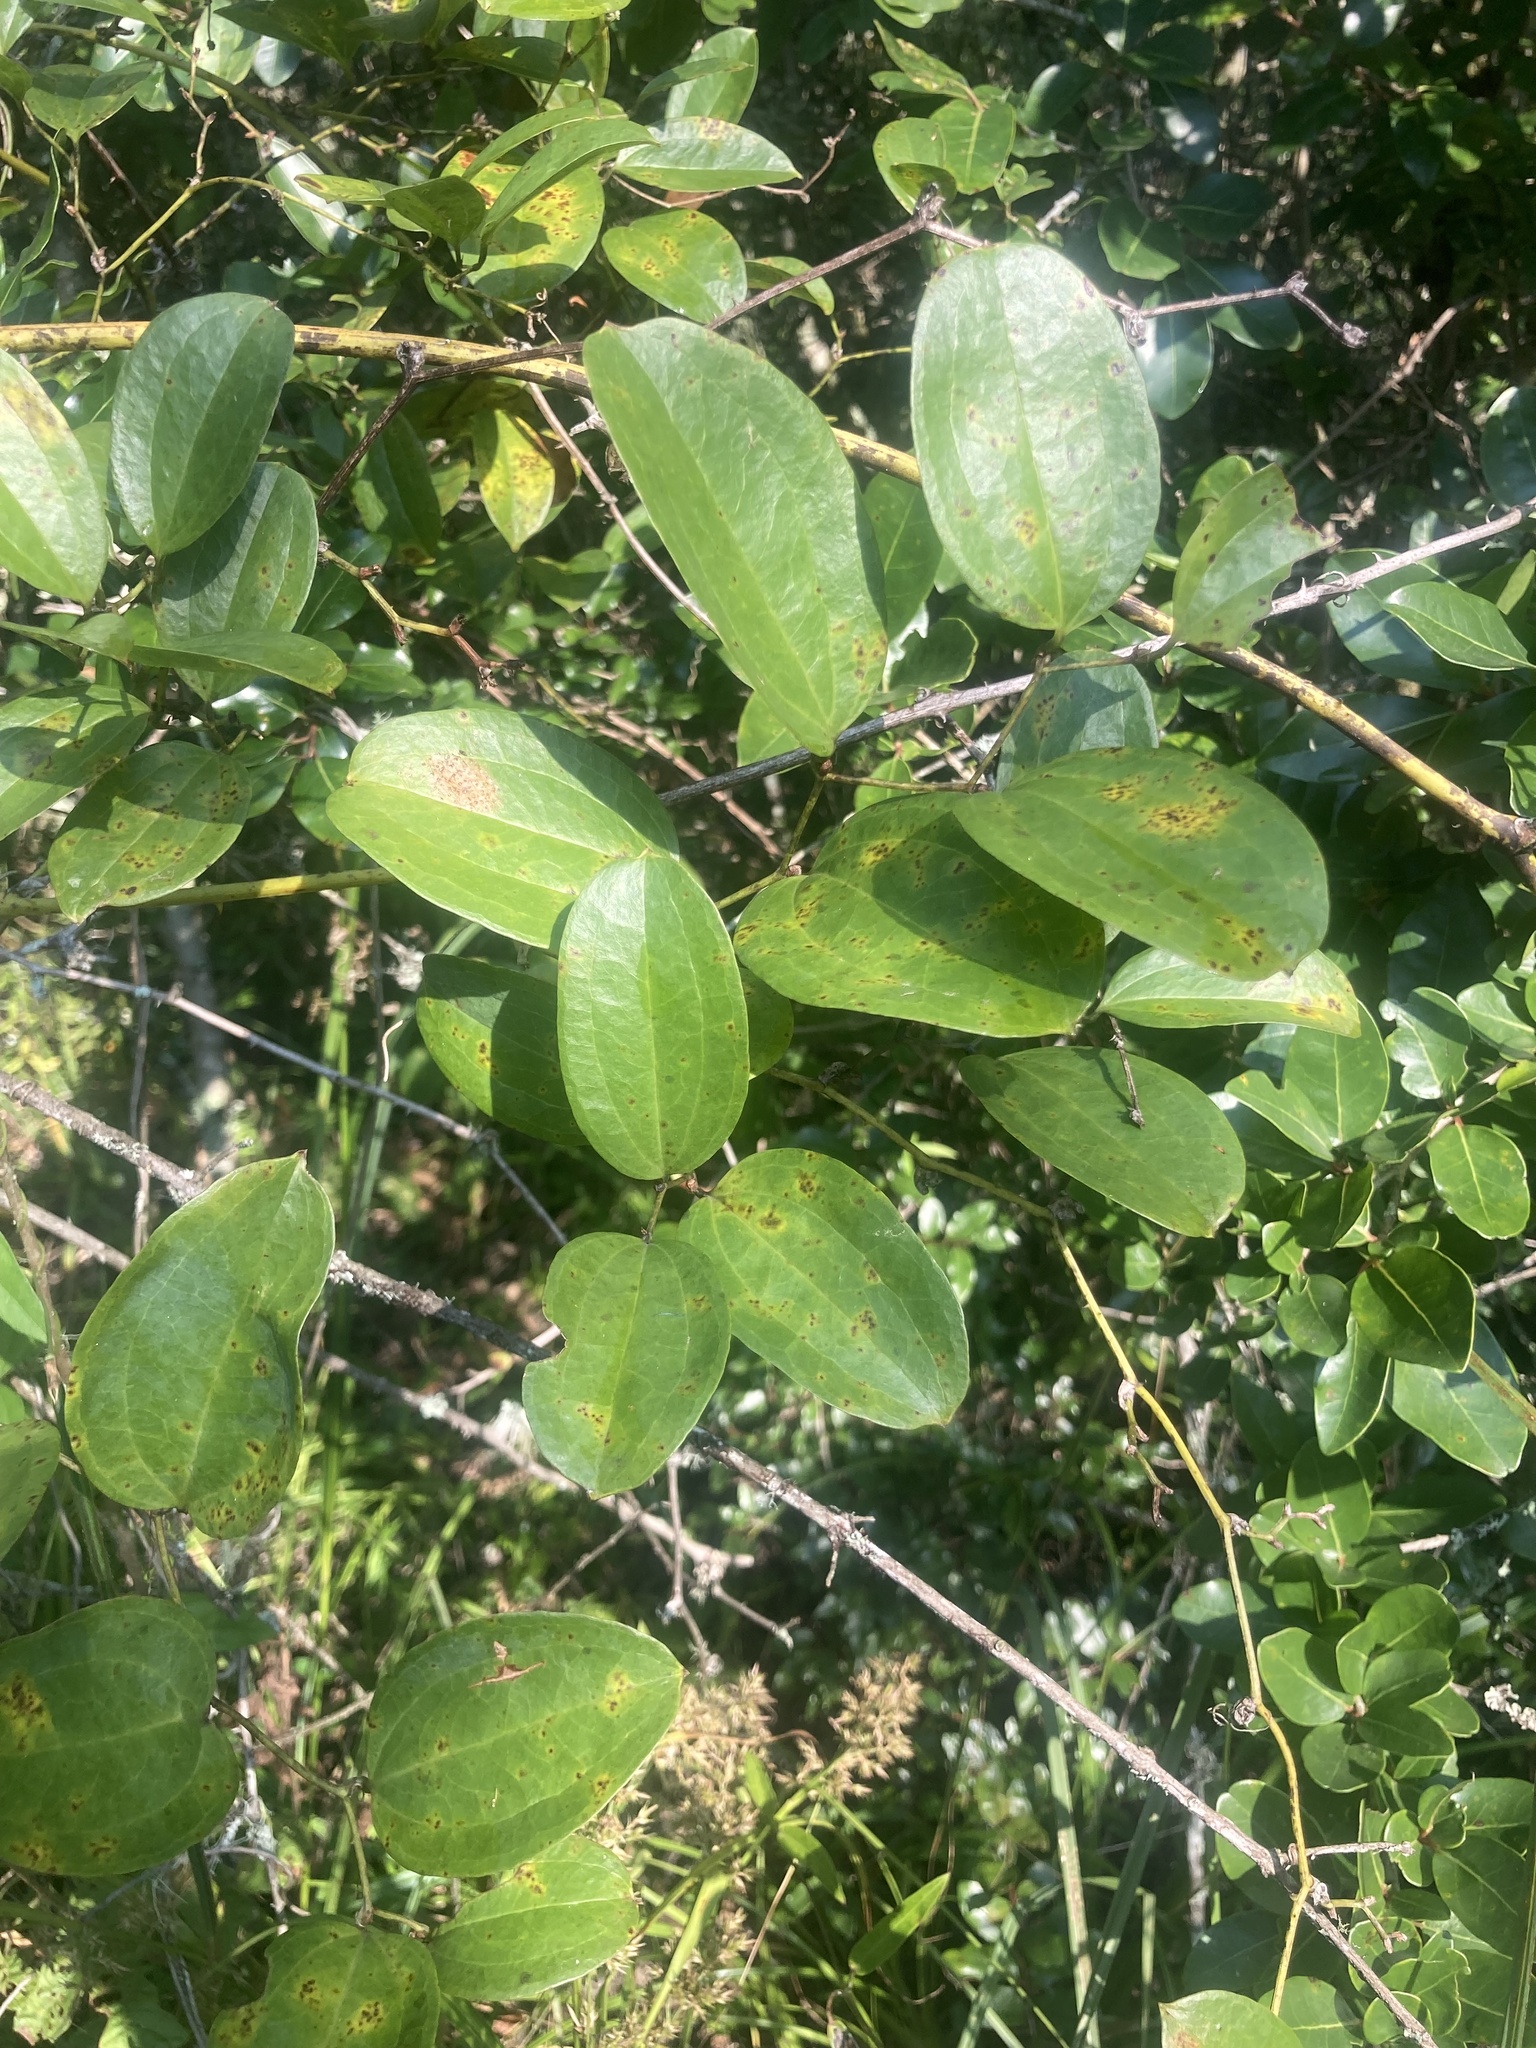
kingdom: Plantae
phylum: Tracheophyta
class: Liliopsida
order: Liliales
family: Smilacaceae
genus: Smilax
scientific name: Smilax anceps
